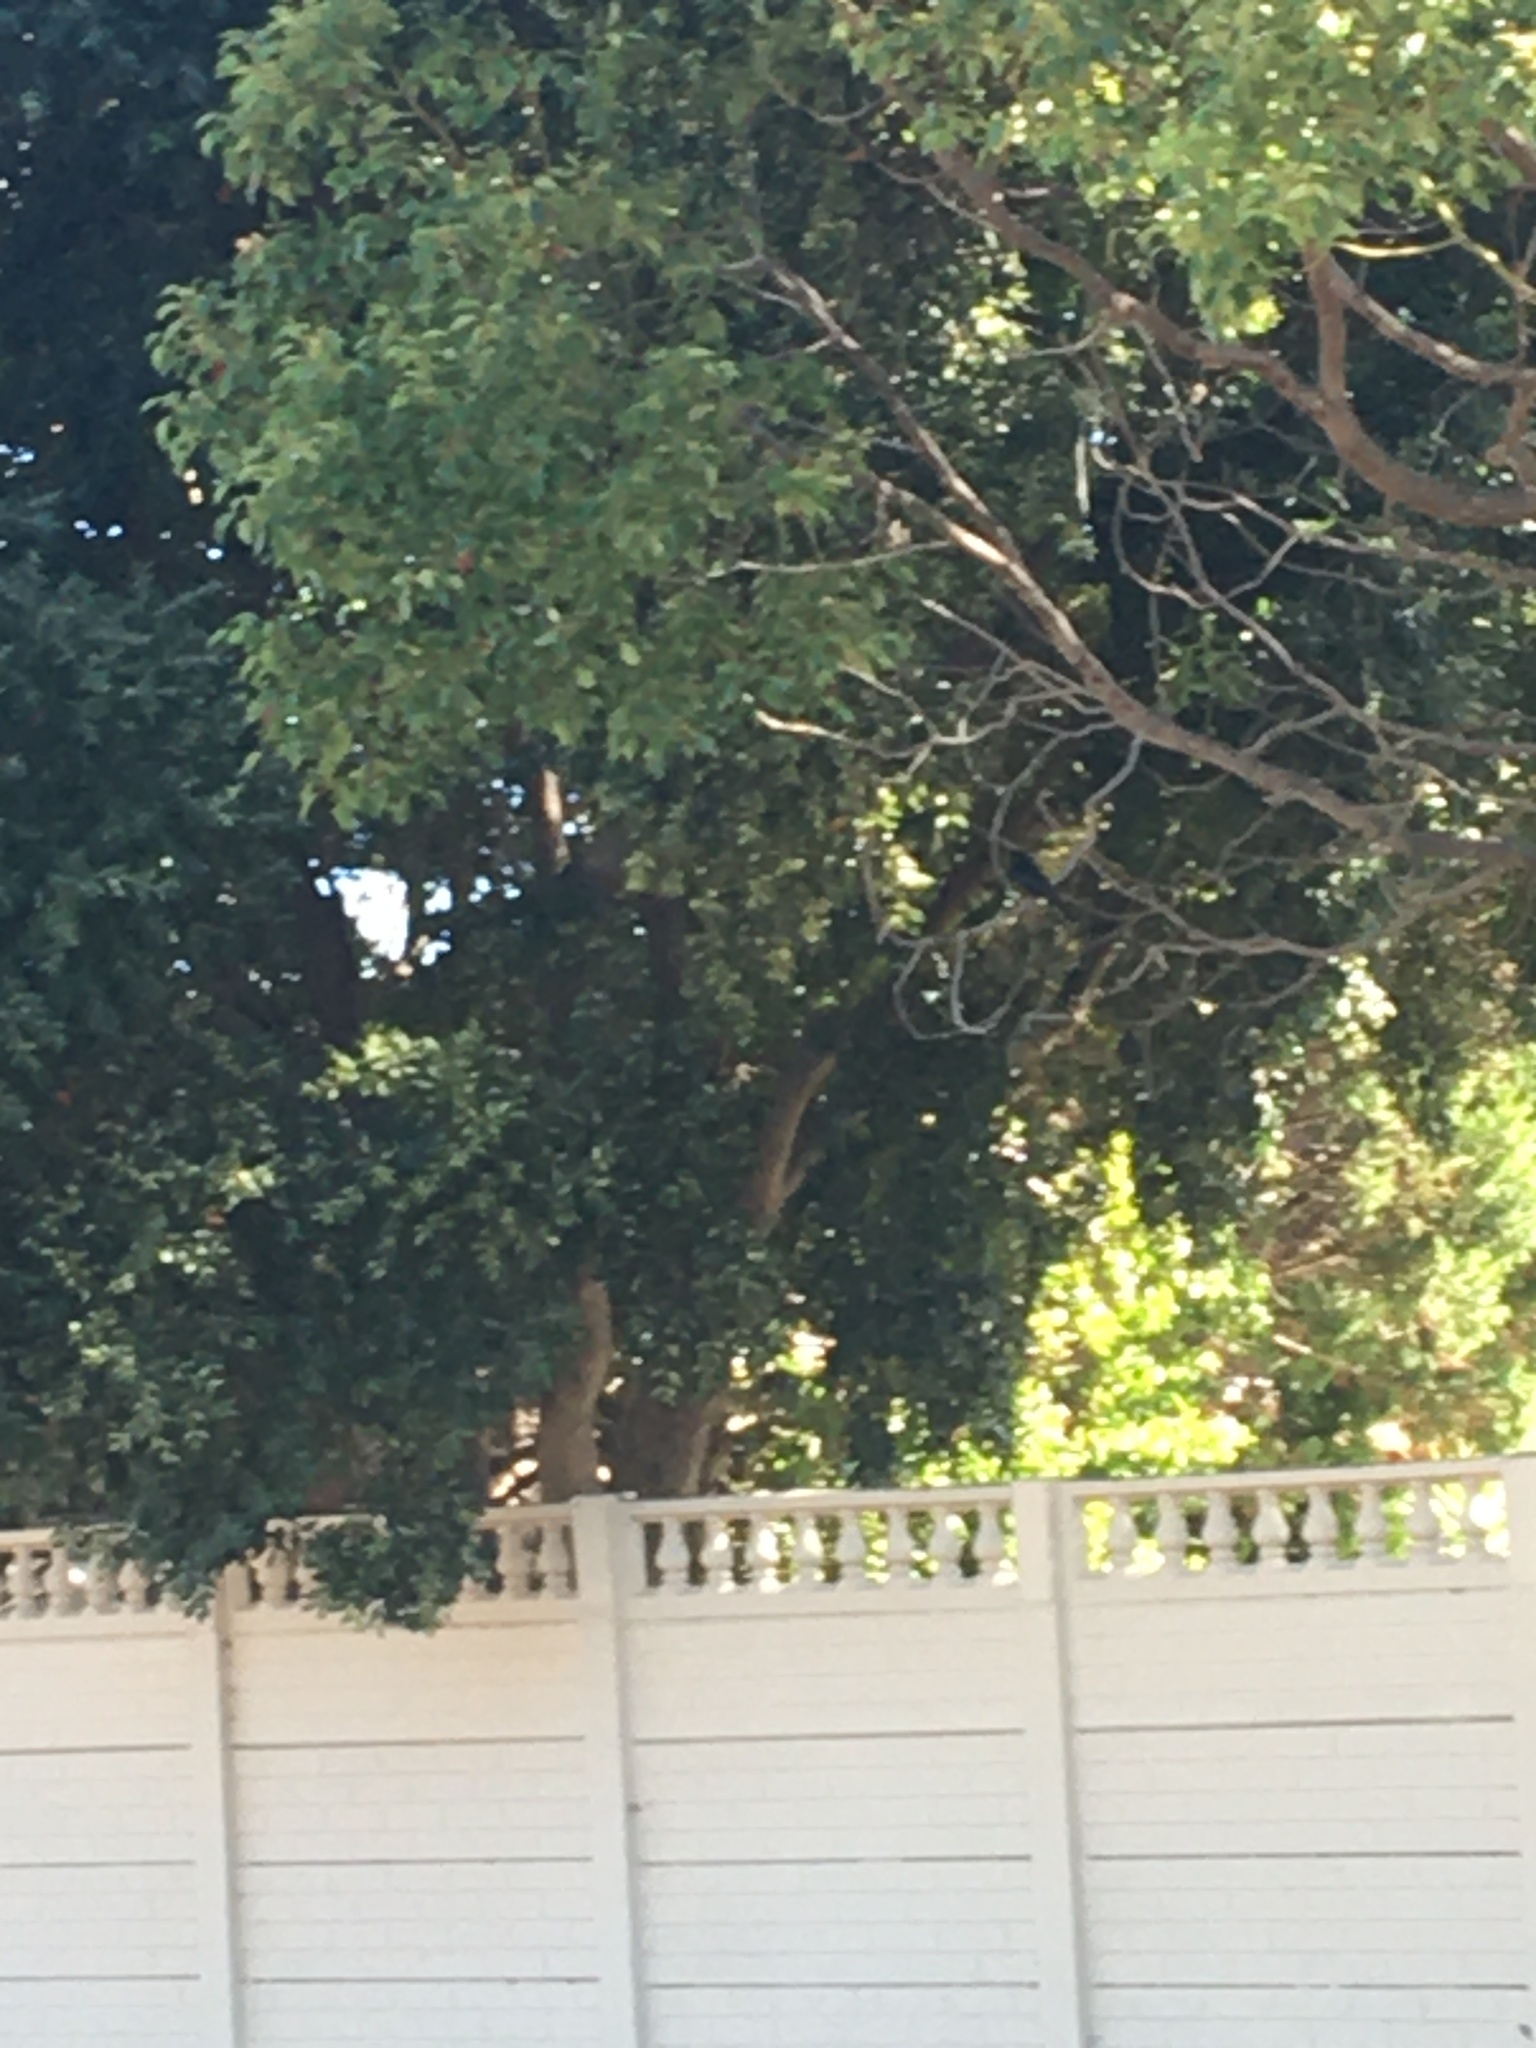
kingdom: Animalia
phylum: Chordata
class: Aves
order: Passeriformes
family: Dicruridae
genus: Dicrurus
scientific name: Dicrurus adsimilis
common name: Fork-tailed drongo
